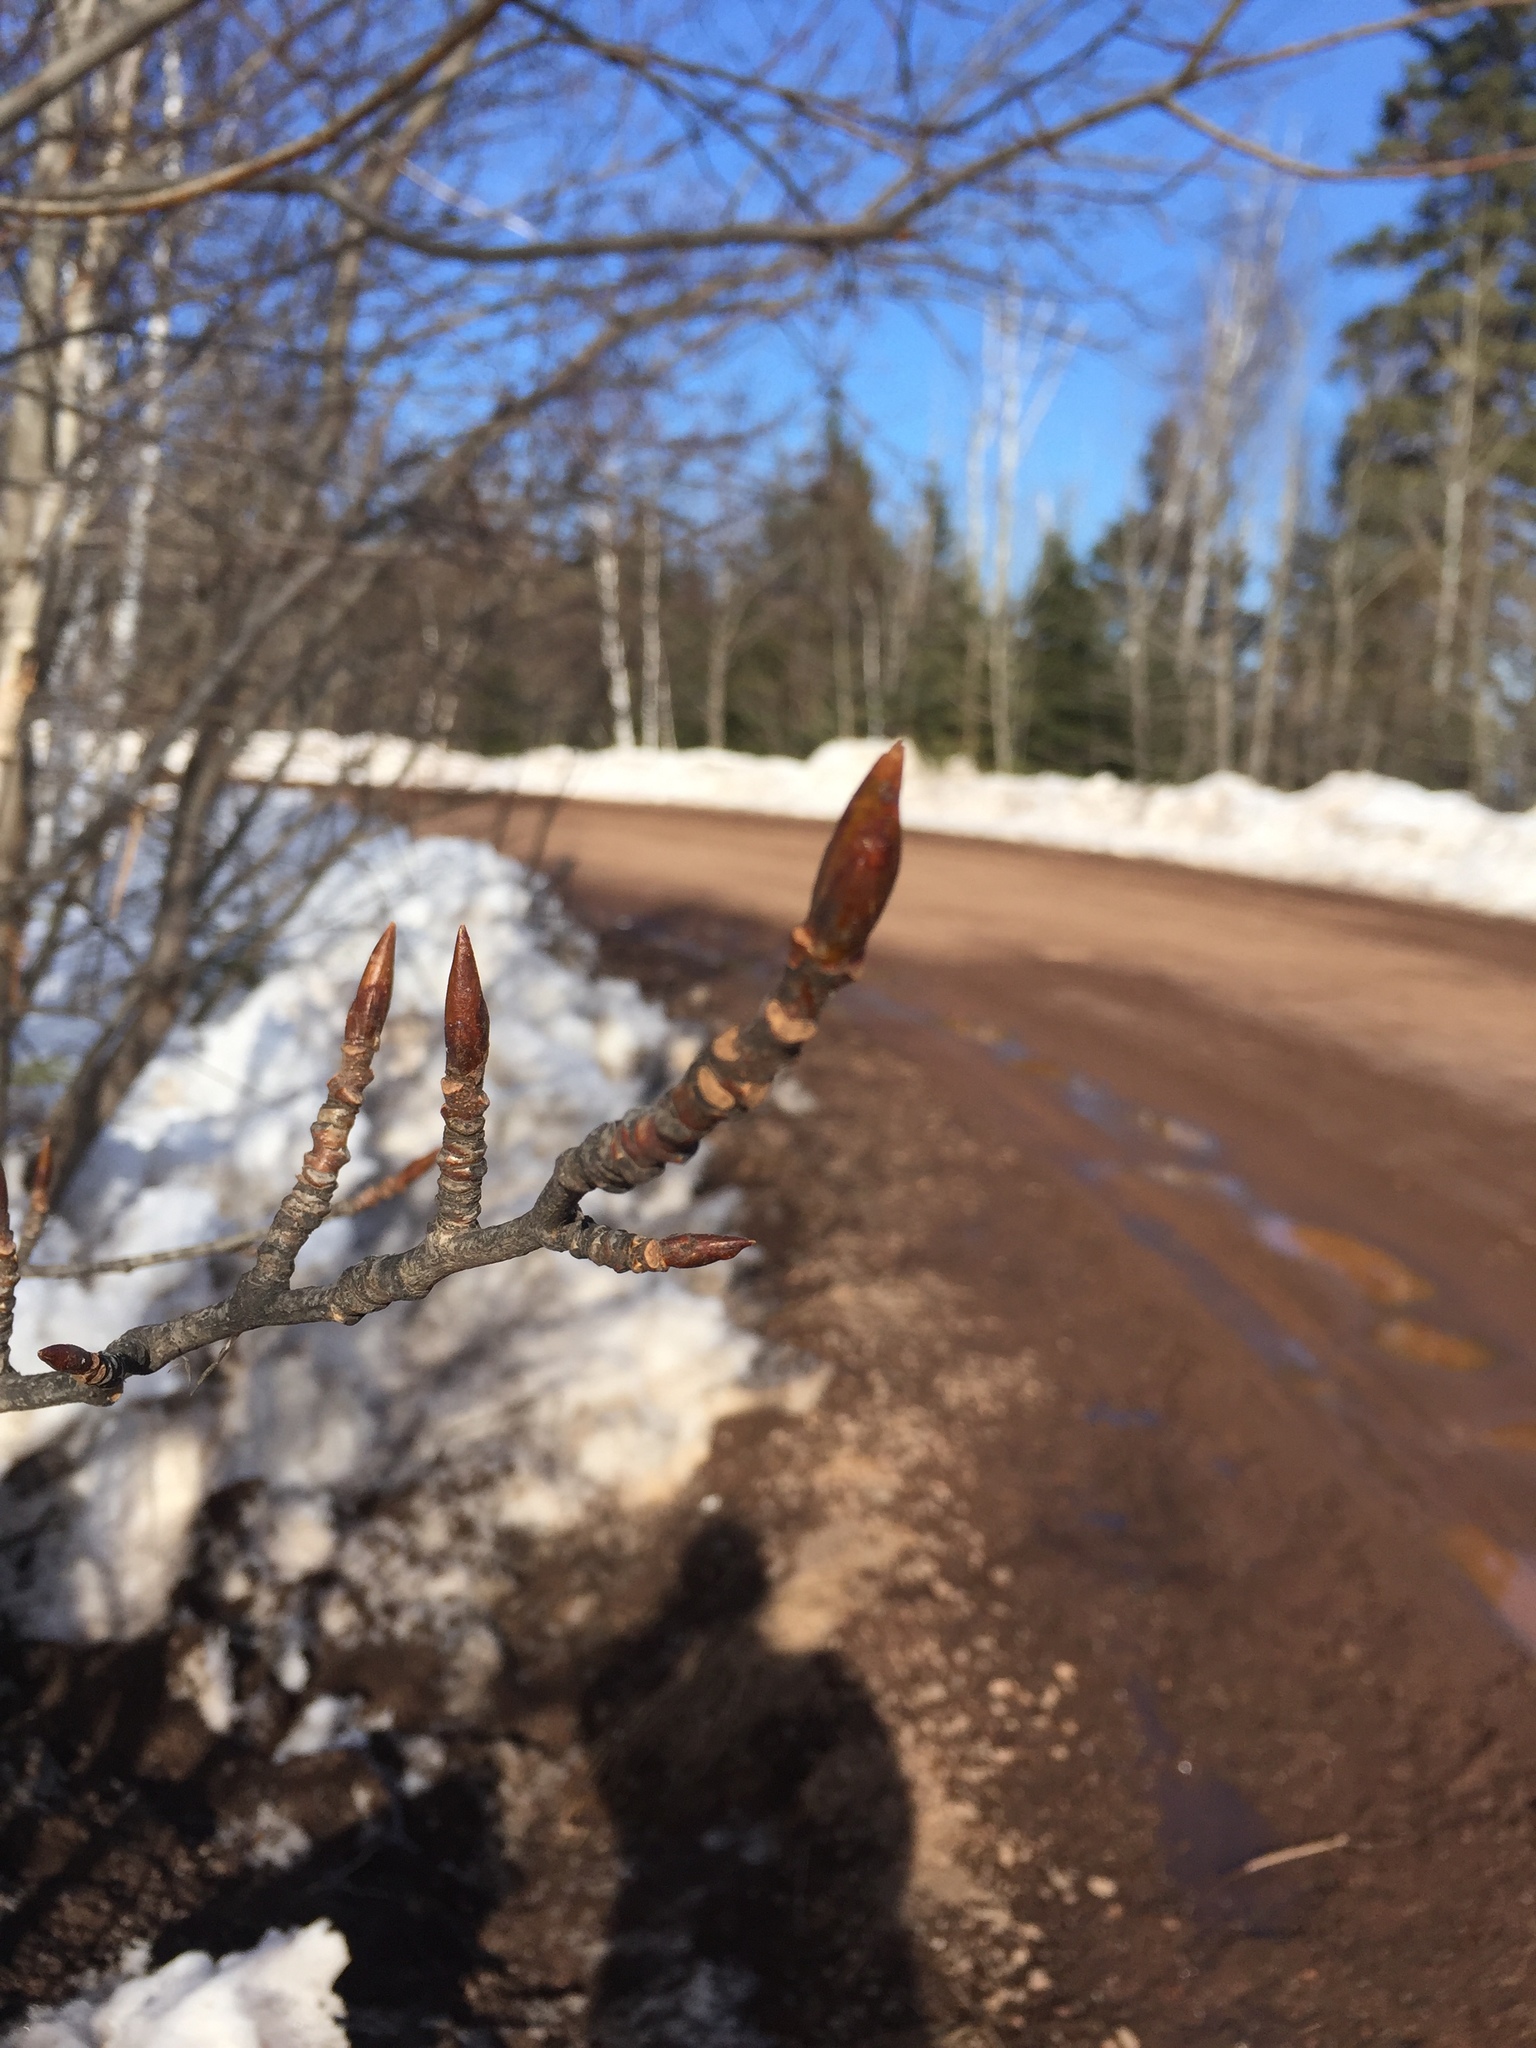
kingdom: Plantae
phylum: Tracheophyta
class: Magnoliopsida
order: Malpighiales
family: Salicaceae
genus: Populus
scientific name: Populus balsamifera
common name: Balsam poplar
